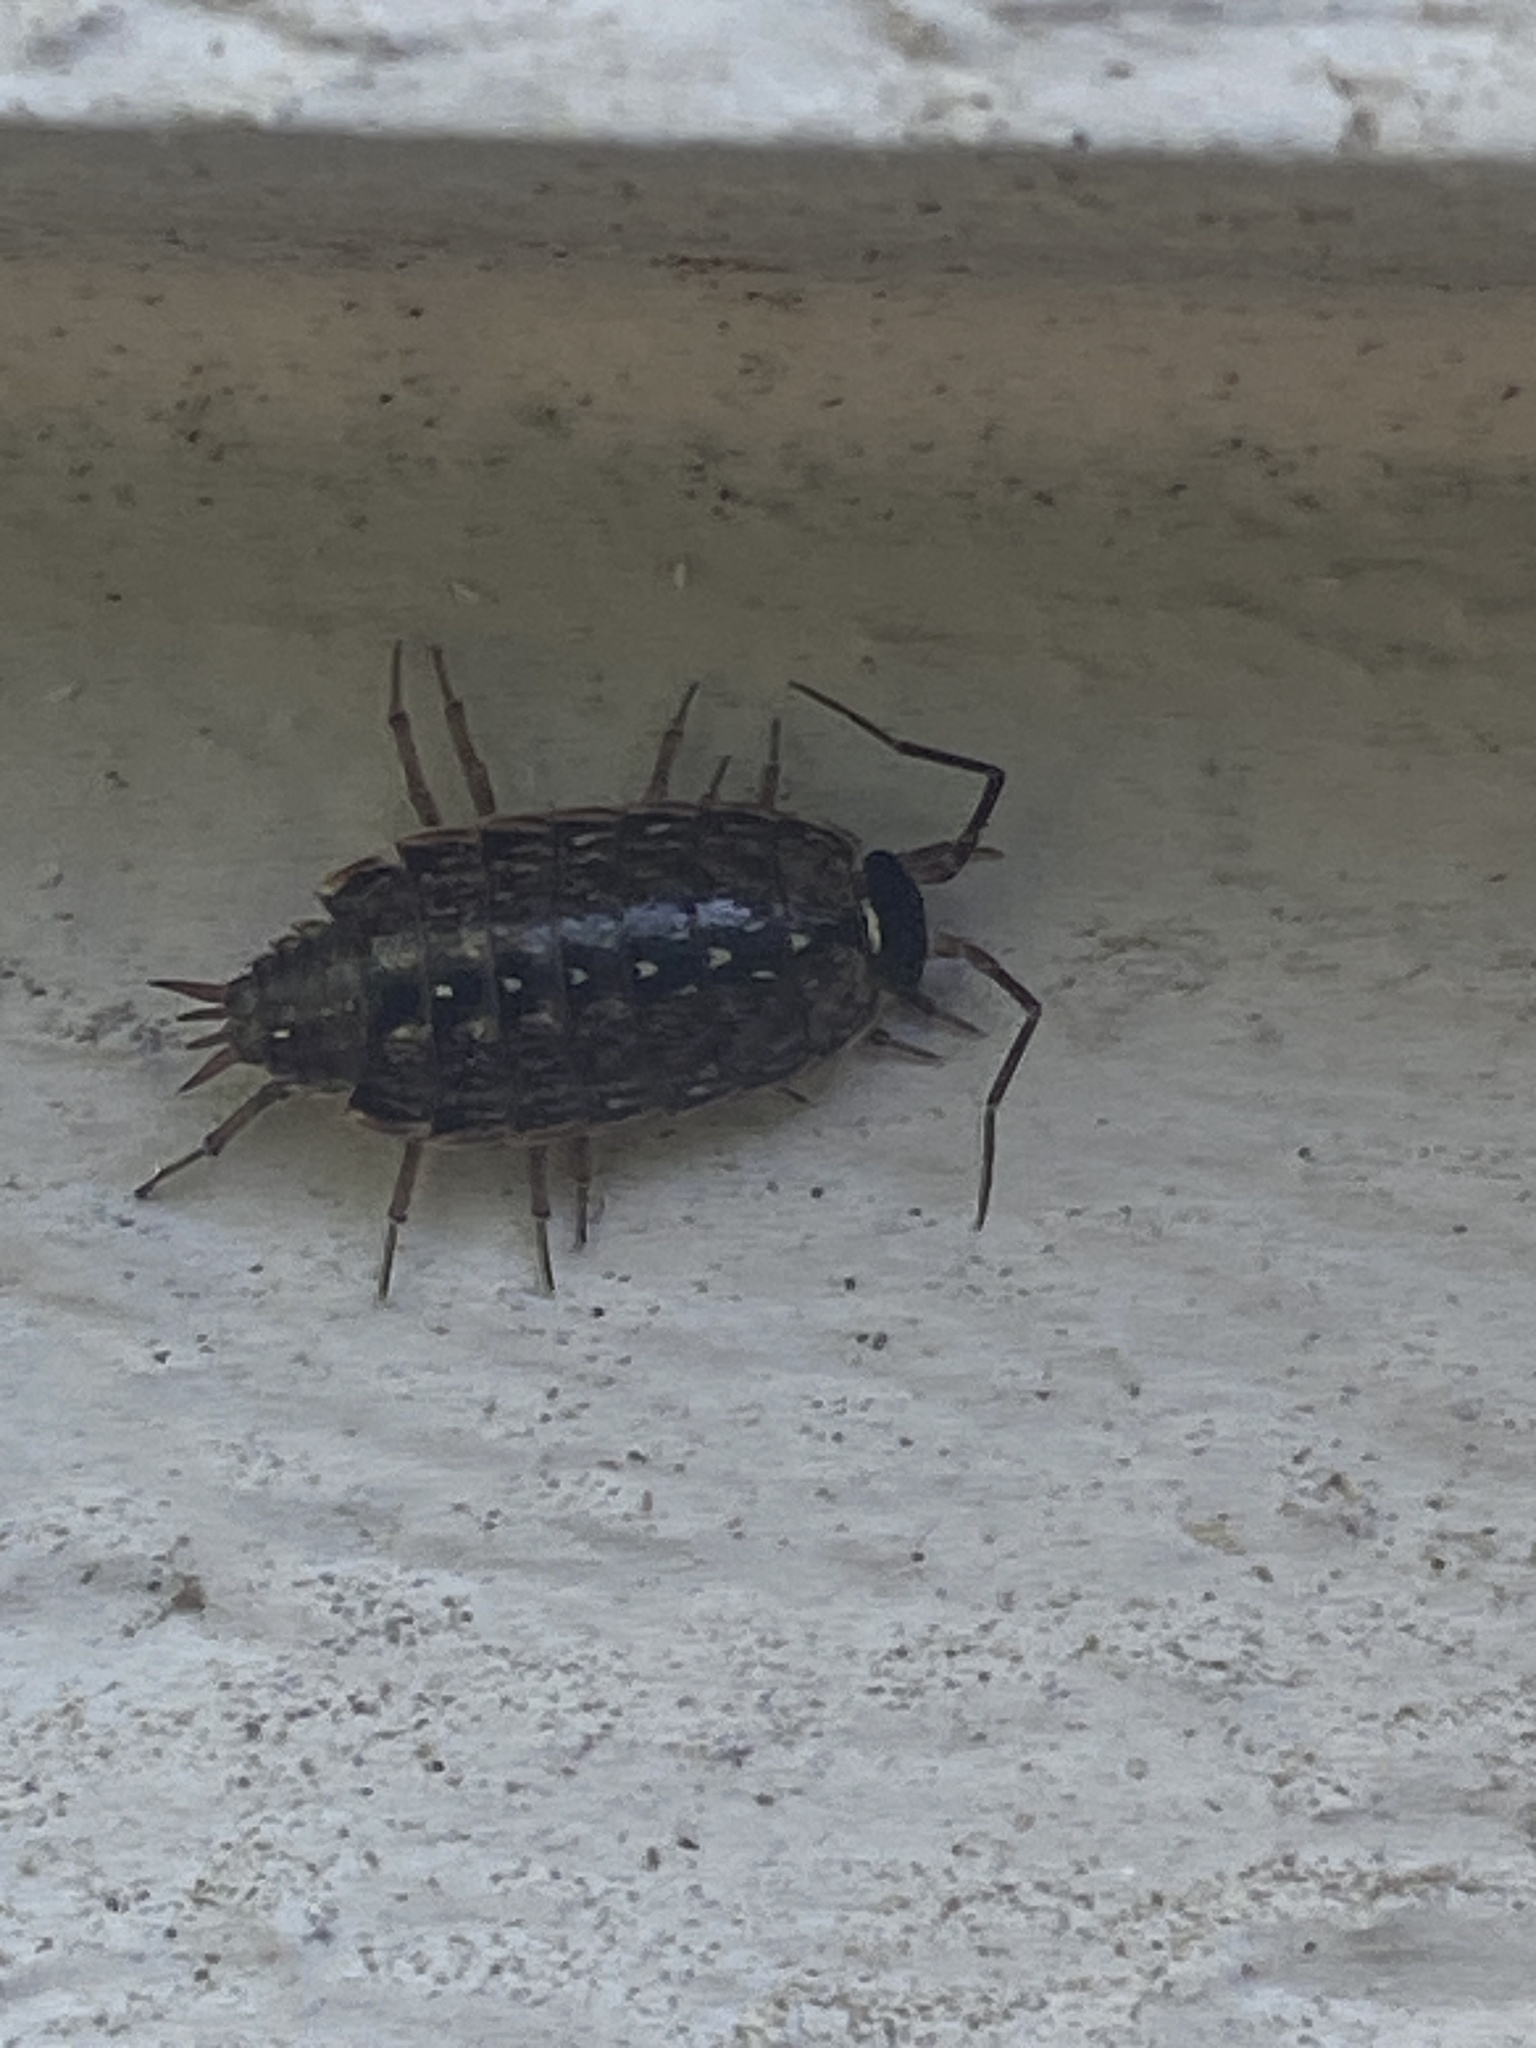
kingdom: Animalia
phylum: Arthropoda
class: Malacostraca
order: Isopoda
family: Philosciidae
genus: Philoscia
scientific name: Philoscia muscorum
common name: Common striped woodlouse
